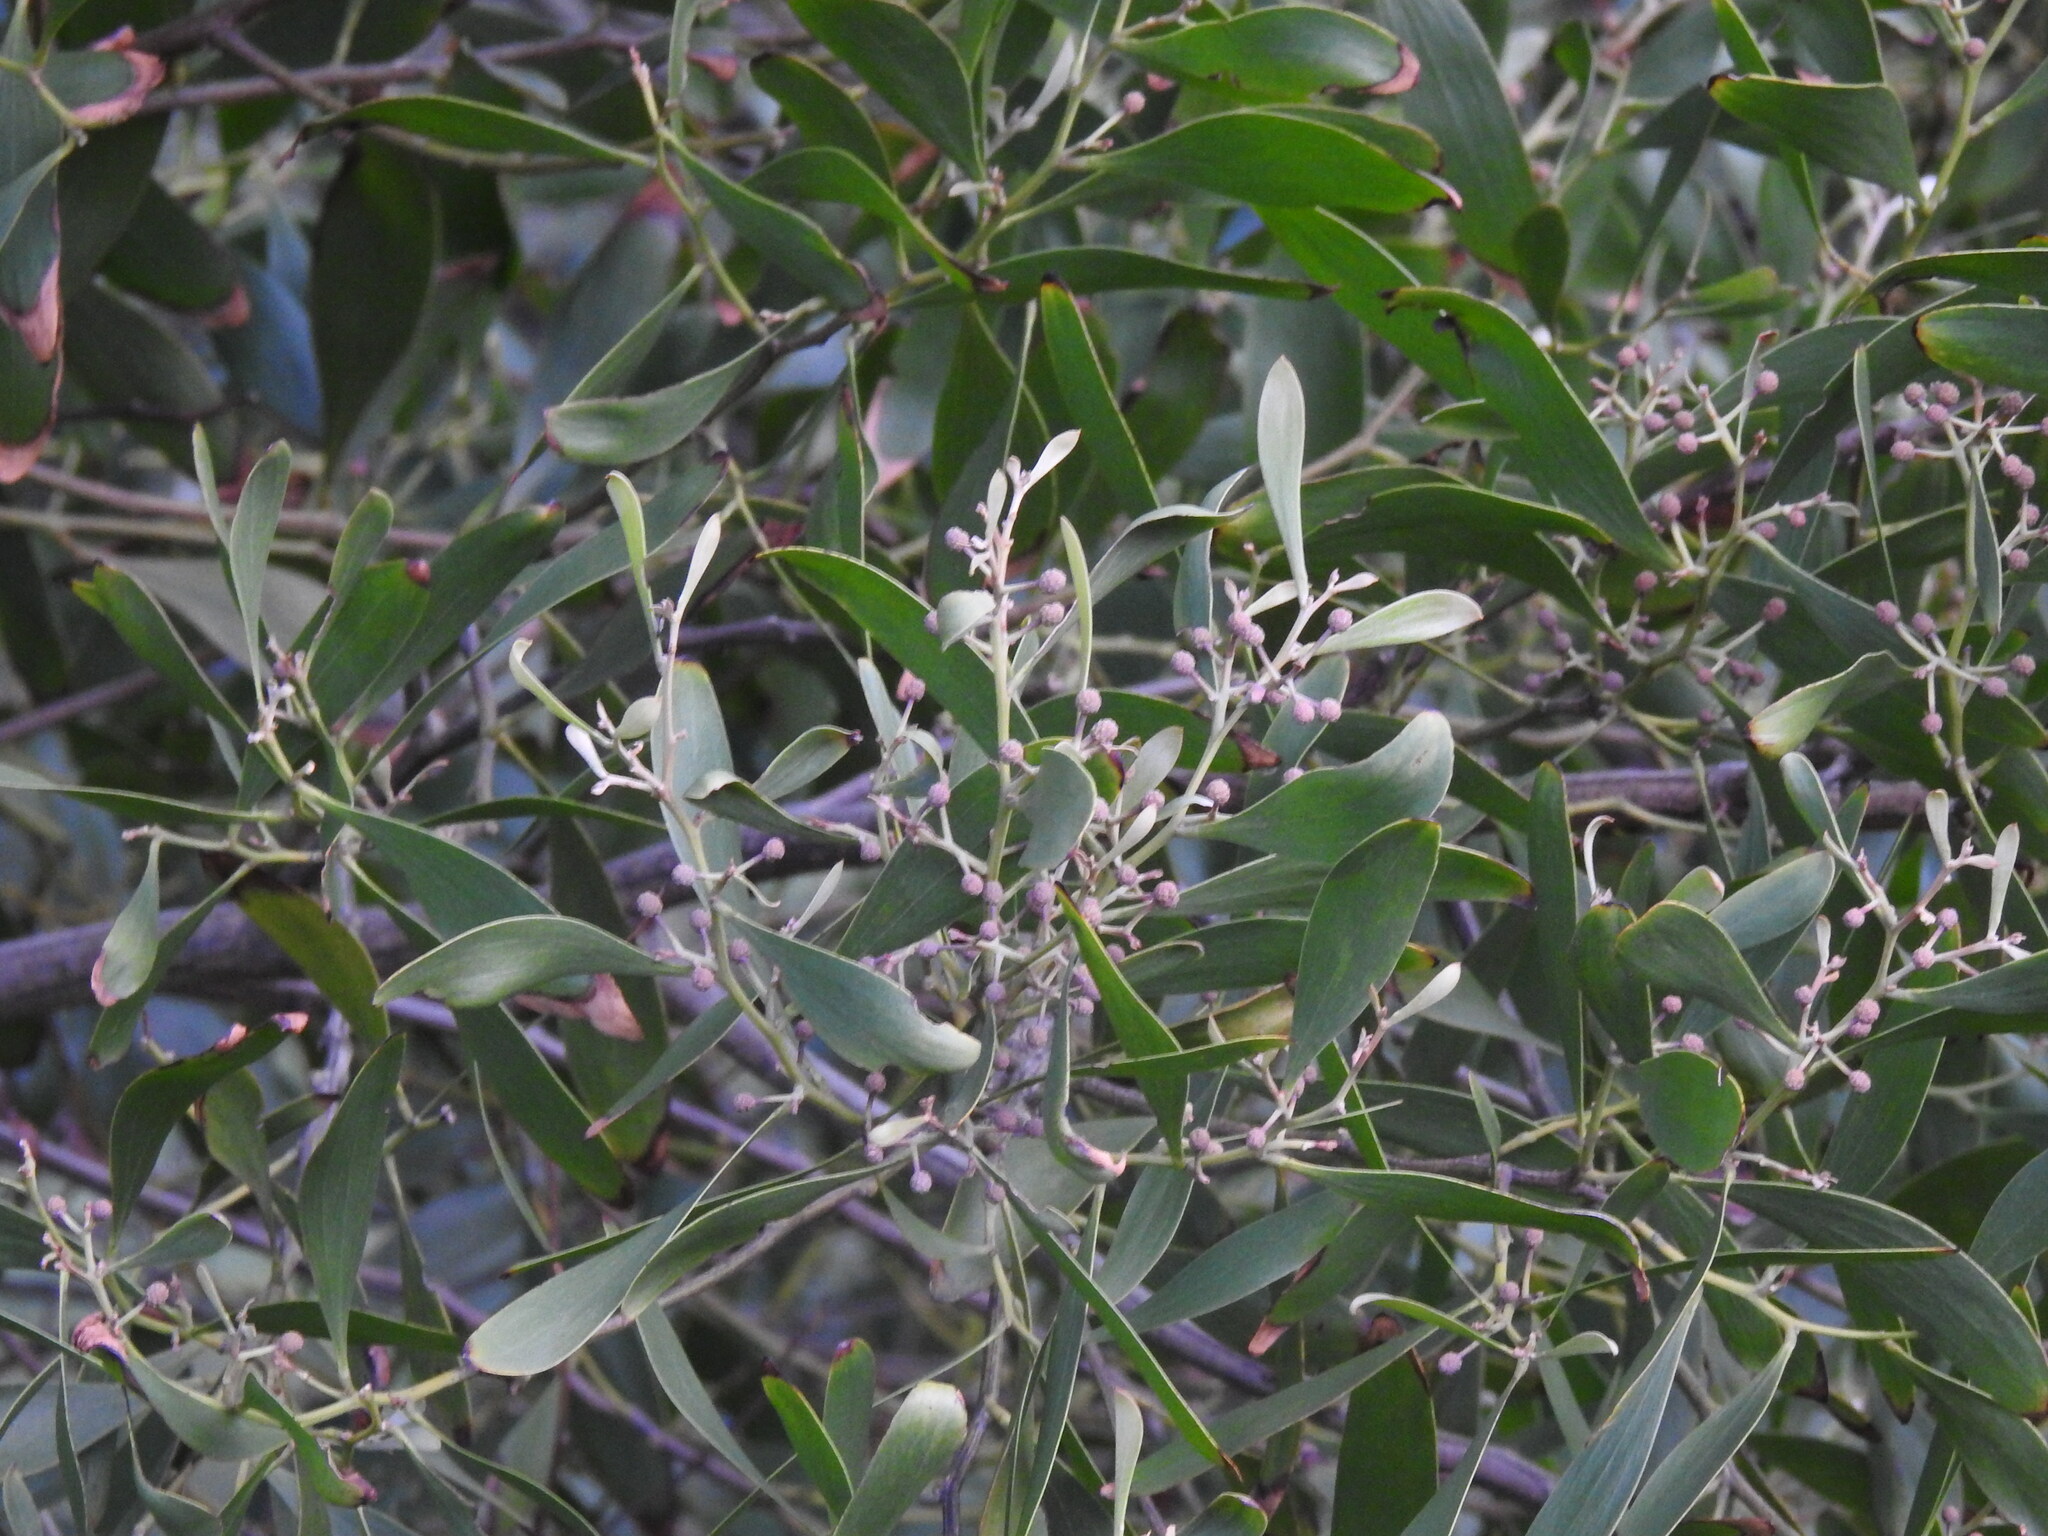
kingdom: Plantae
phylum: Tracheophyta
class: Magnoliopsida
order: Fabales
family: Fabaceae
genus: Acacia
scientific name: Acacia melanoxylon
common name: Blackwood
